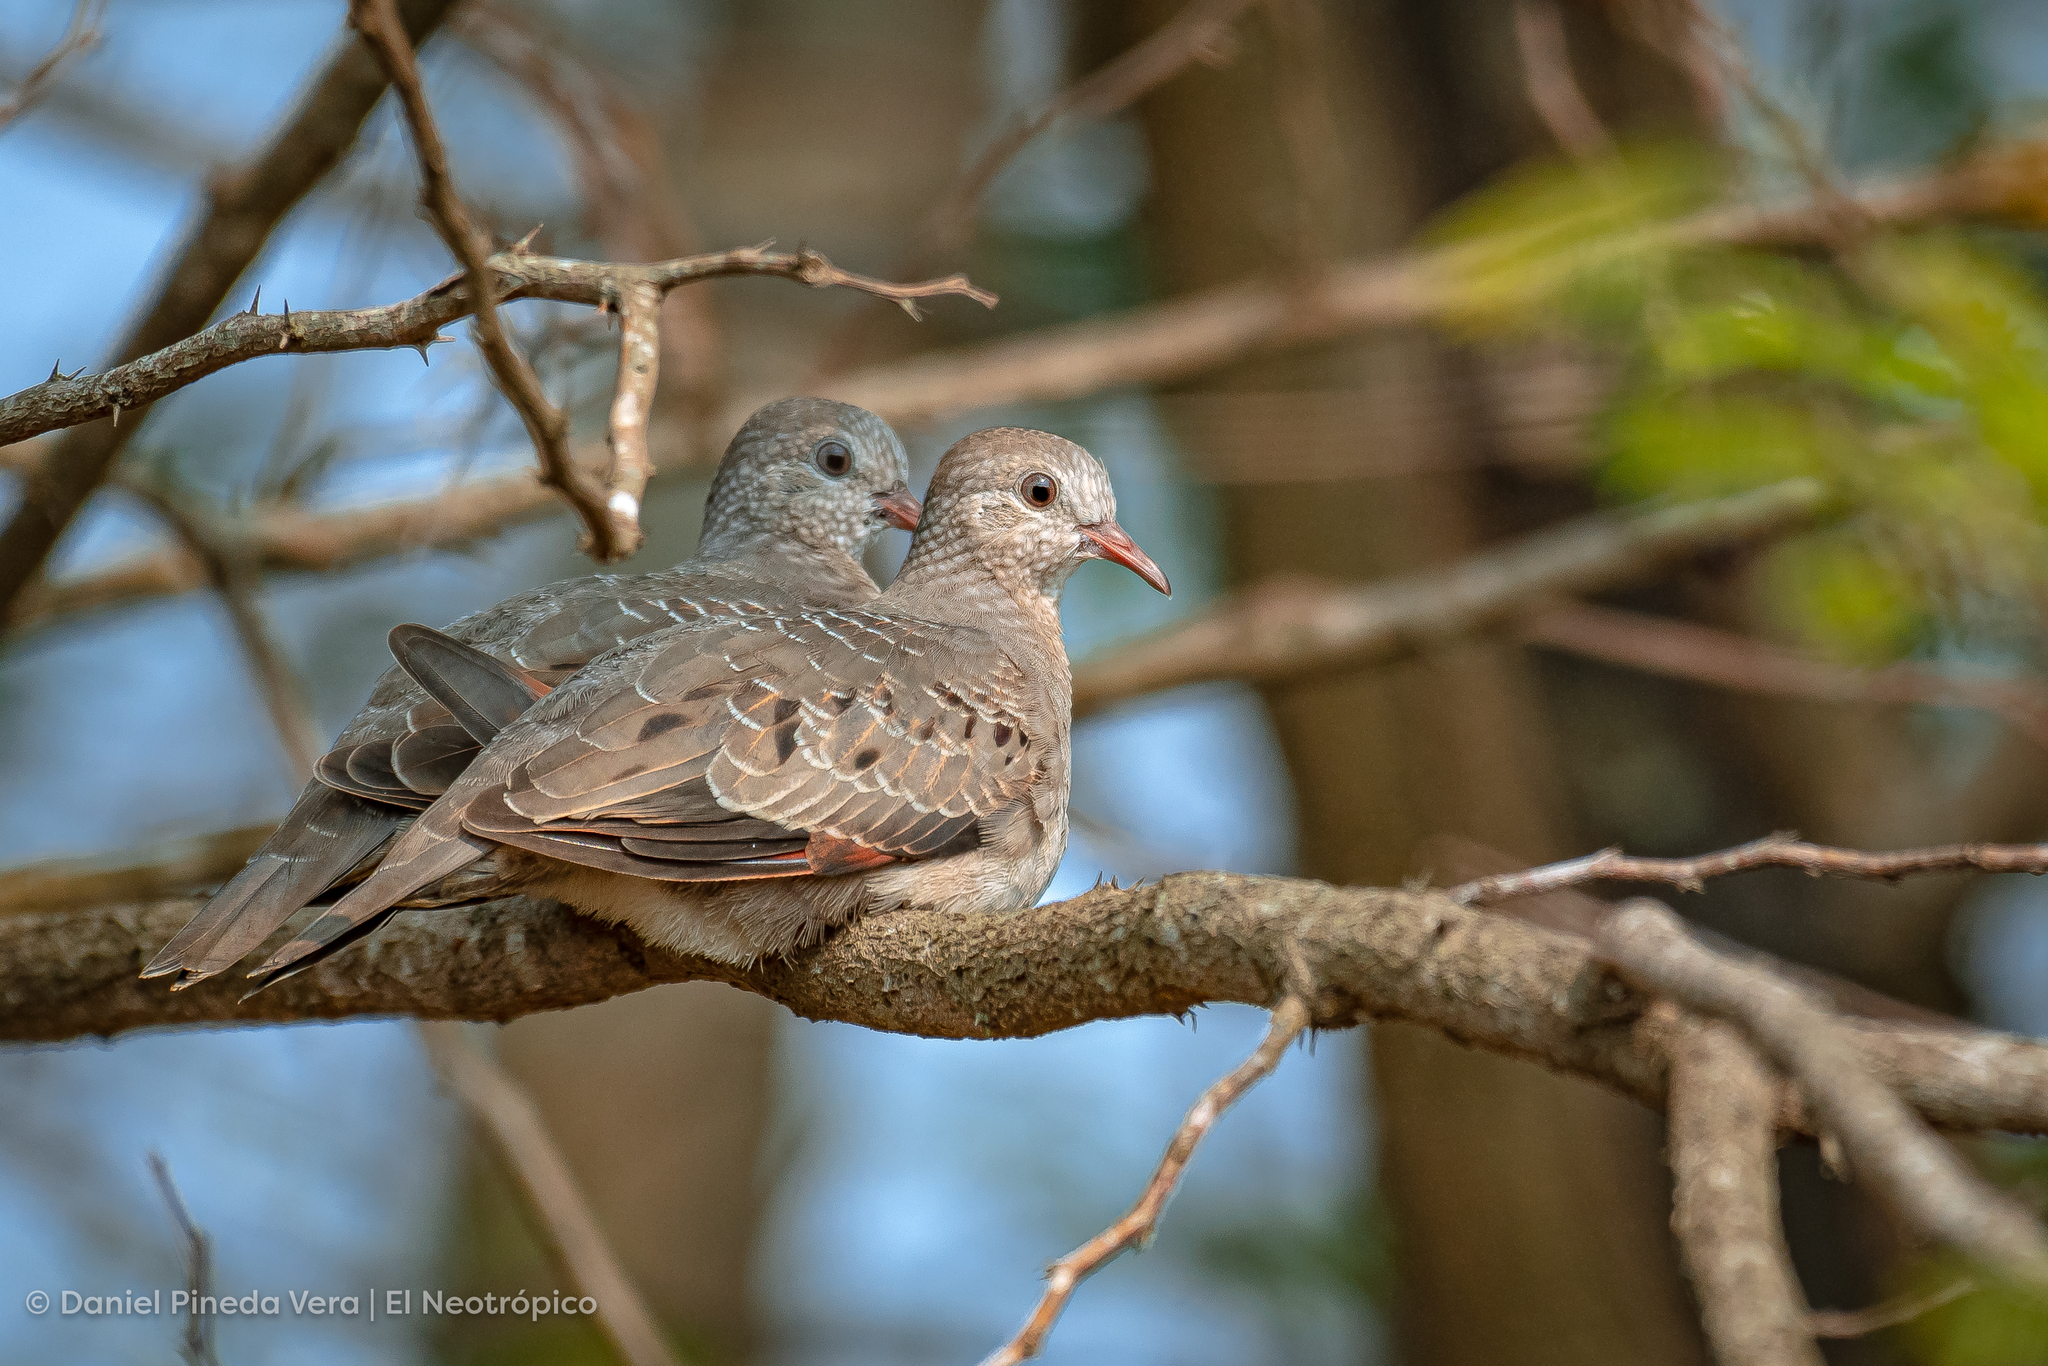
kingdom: Animalia
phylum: Chordata
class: Aves
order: Columbiformes
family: Columbidae
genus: Columbina
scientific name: Columbina passerina
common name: Common ground-dove
